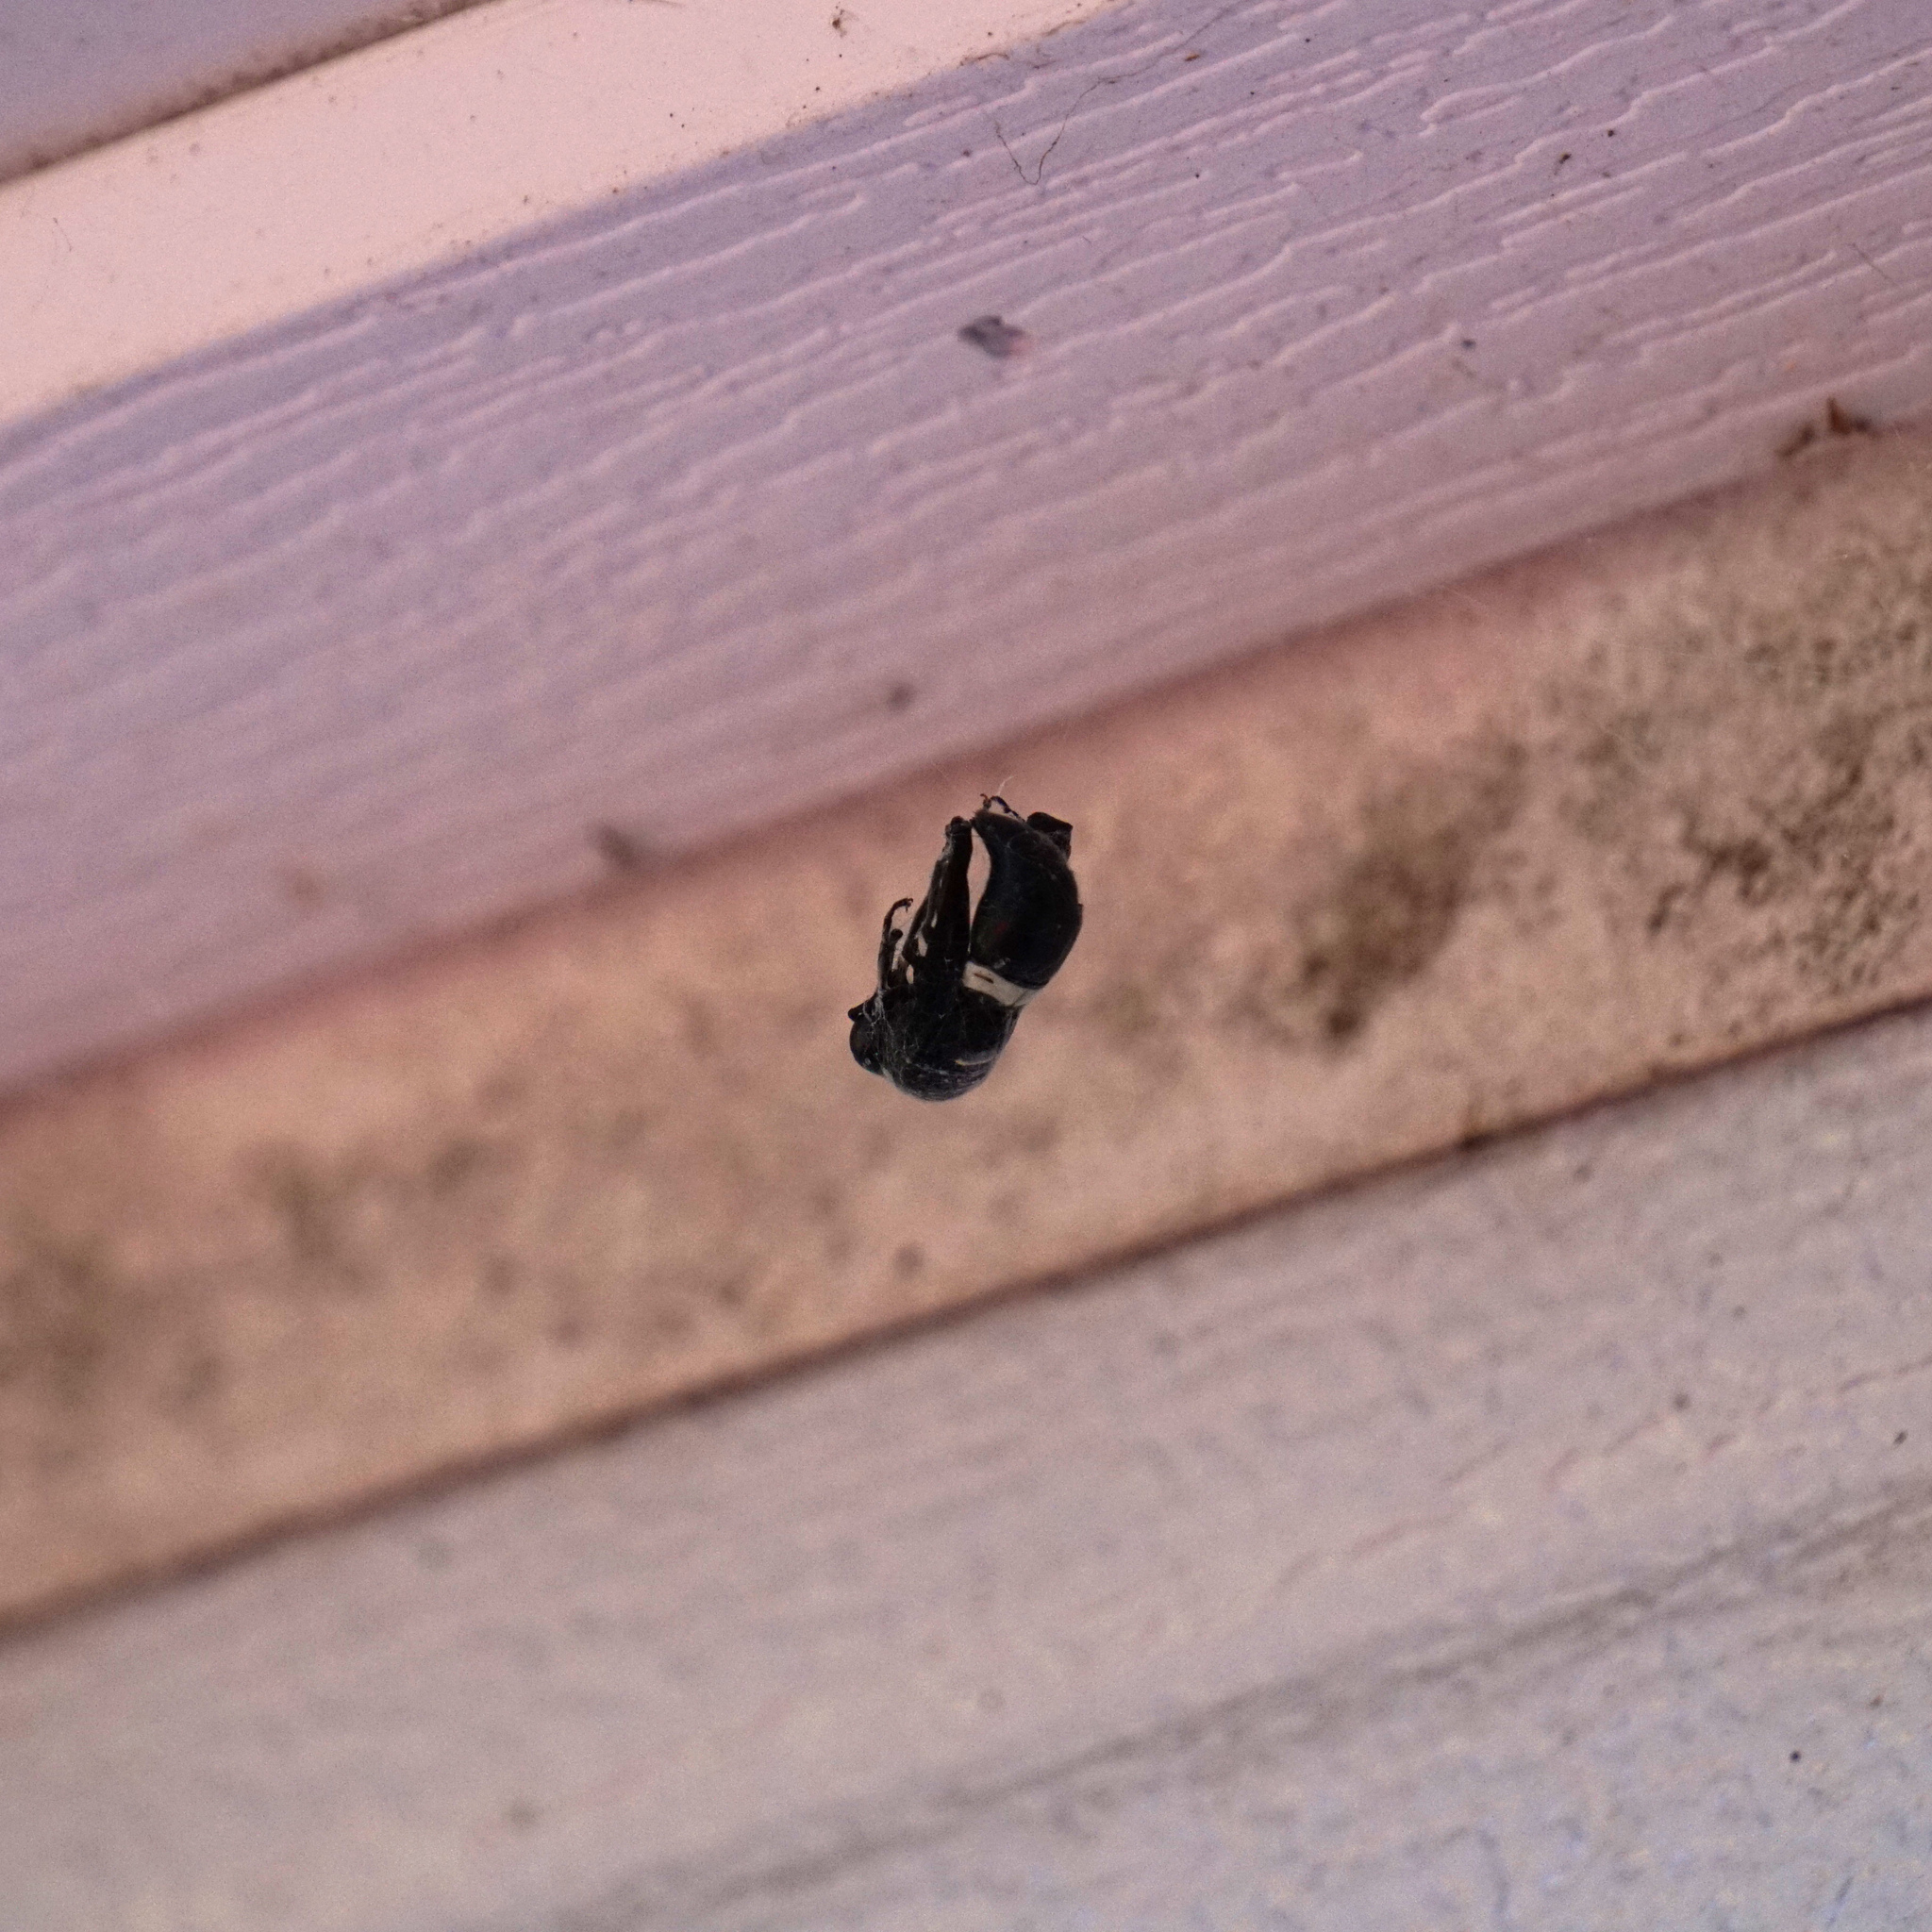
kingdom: Animalia
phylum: Arthropoda
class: Insecta
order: Hymenoptera
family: Eumenidae
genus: Monobia
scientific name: Monobia quadridens
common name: Four-toothed mason wasp
